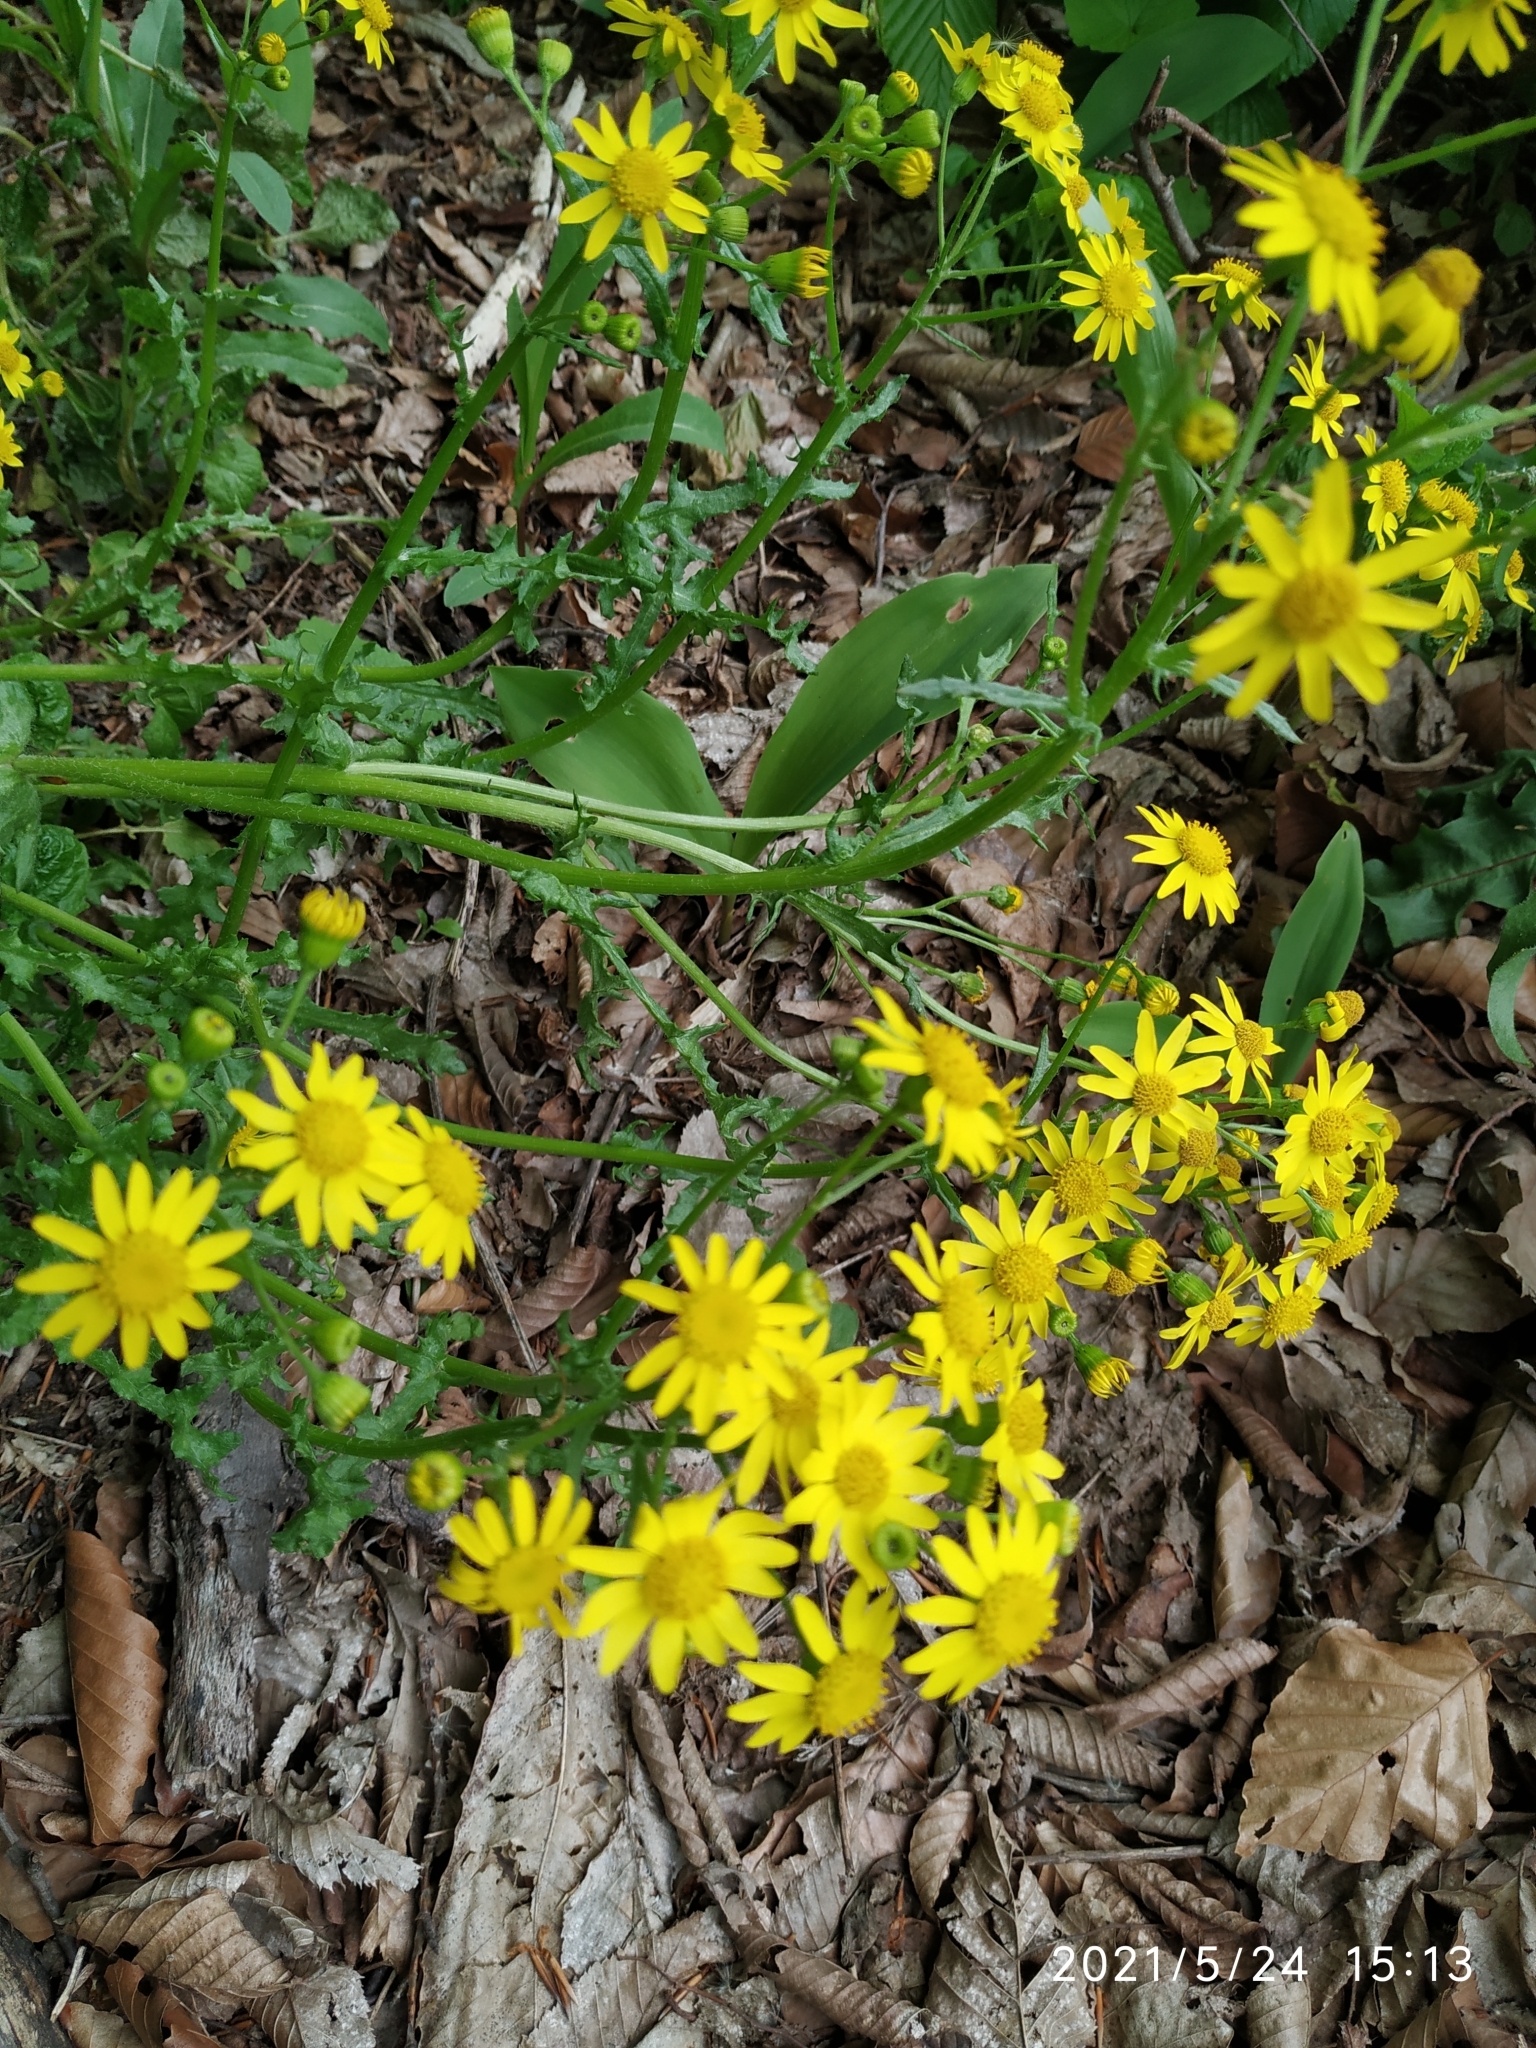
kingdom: Plantae
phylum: Tracheophyta
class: Magnoliopsida
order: Asterales
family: Asteraceae
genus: Senecio
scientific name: Senecio vernalis
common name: Eastern groundsel
